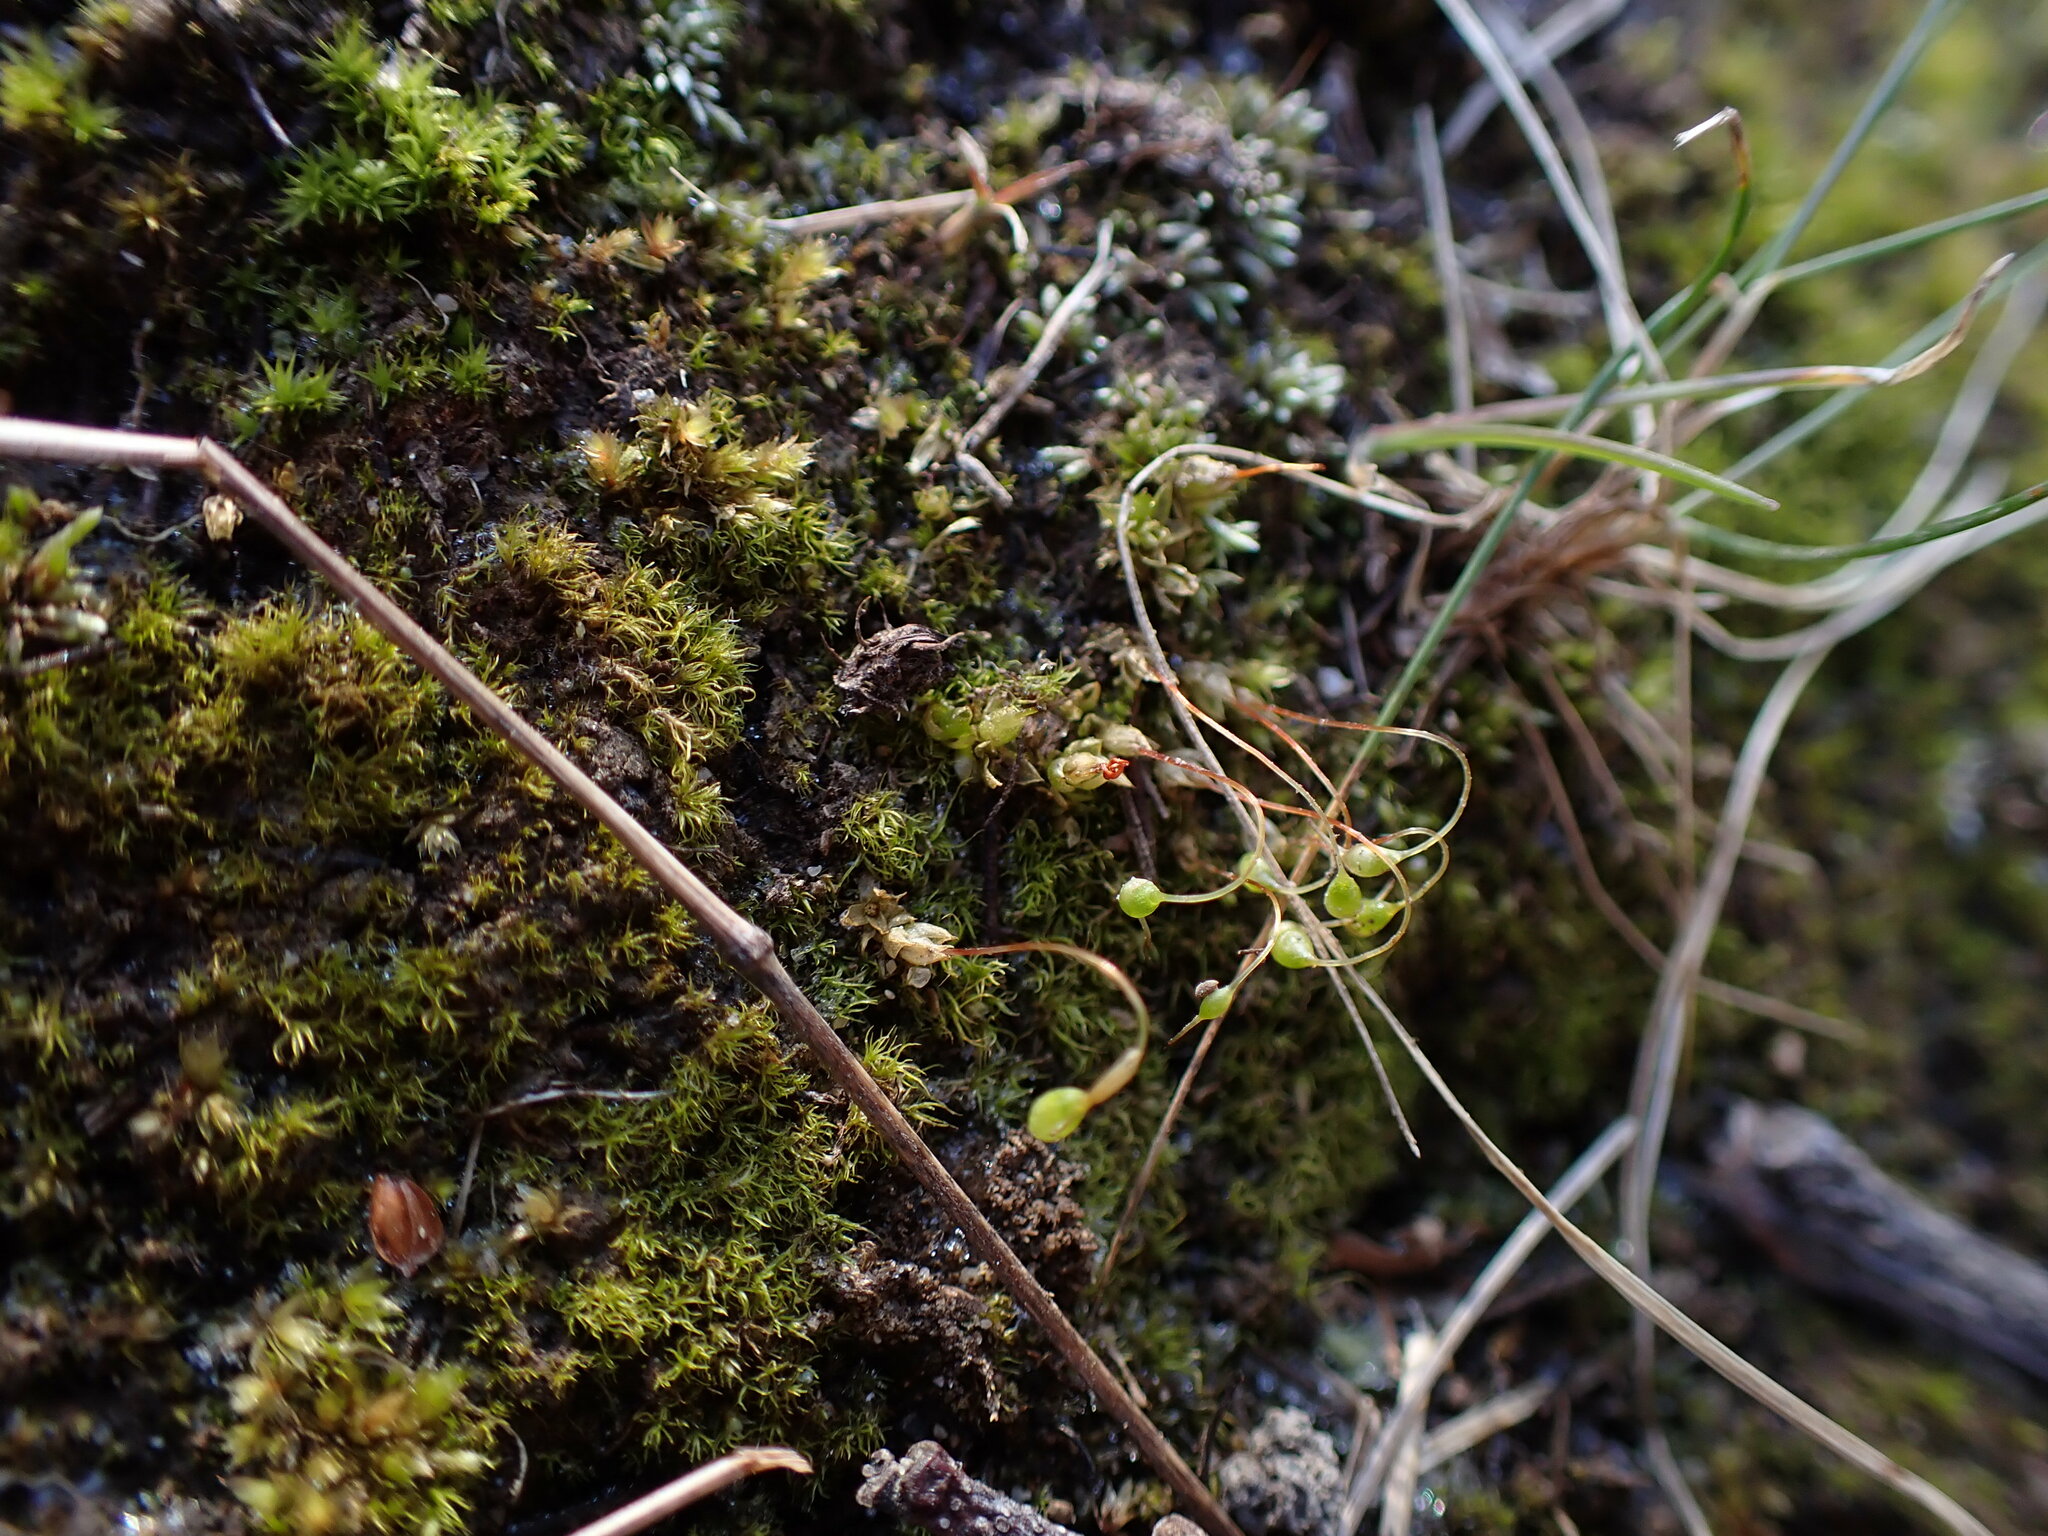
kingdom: Plantae
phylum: Bryophyta
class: Bryopsida
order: Funariales
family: Funariaceae
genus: Funaria
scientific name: Funaria hygrometrica
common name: Common cord moss
